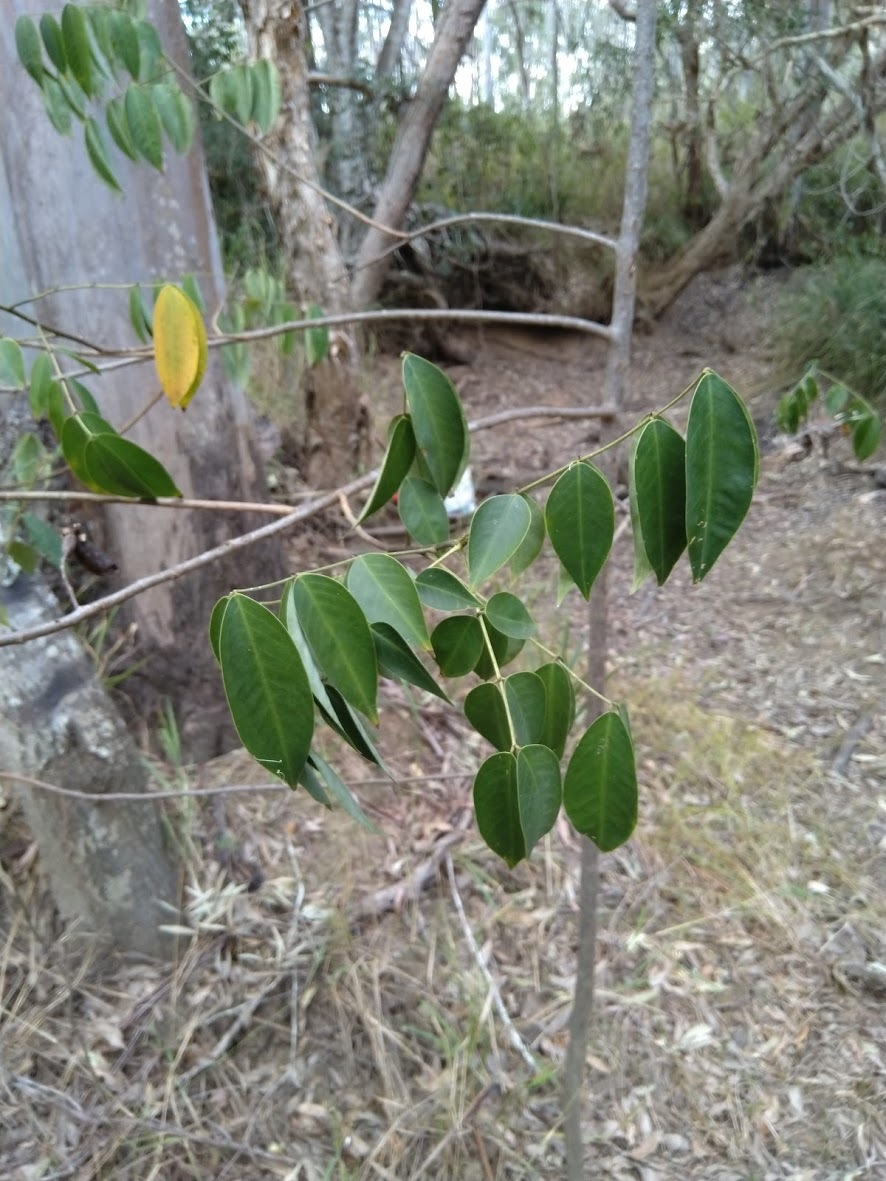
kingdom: Plantae
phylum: Tracheophyta
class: Magnoliopsida
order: Fabales
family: Fabaceae
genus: Senna
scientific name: Senna septemtrionalis
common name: Arsenic bush
